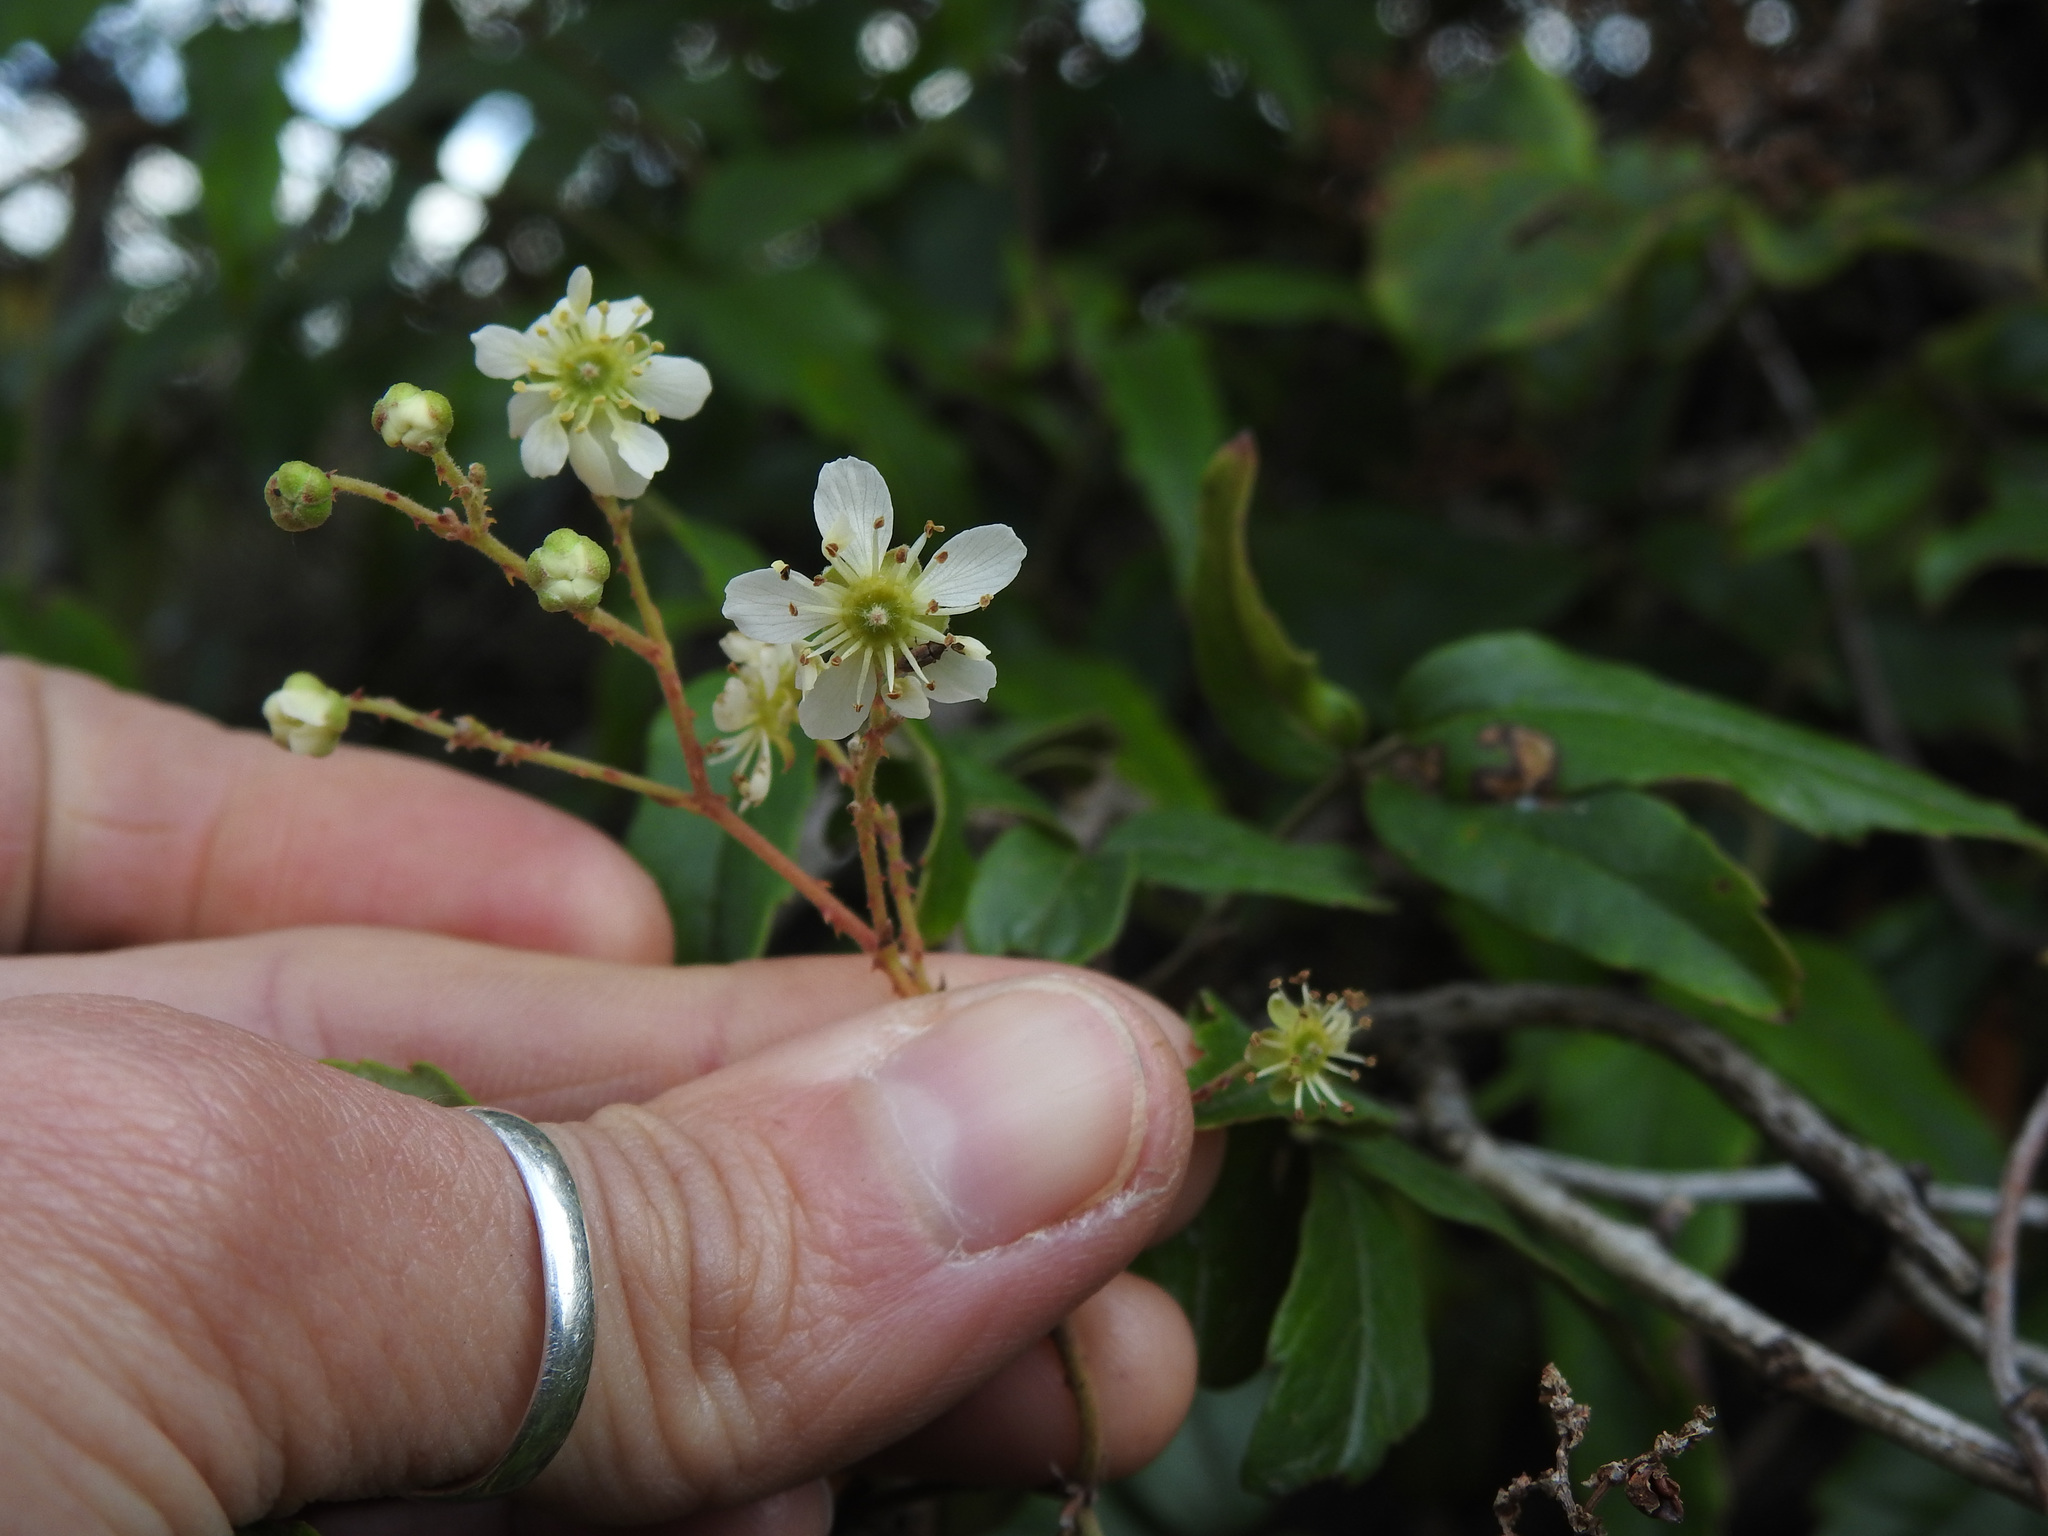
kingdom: Plantae
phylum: Tracheophyta
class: Magnoliopsida
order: Rosales
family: Rosaceae
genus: Rubus
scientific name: Rubus schmidelioides
